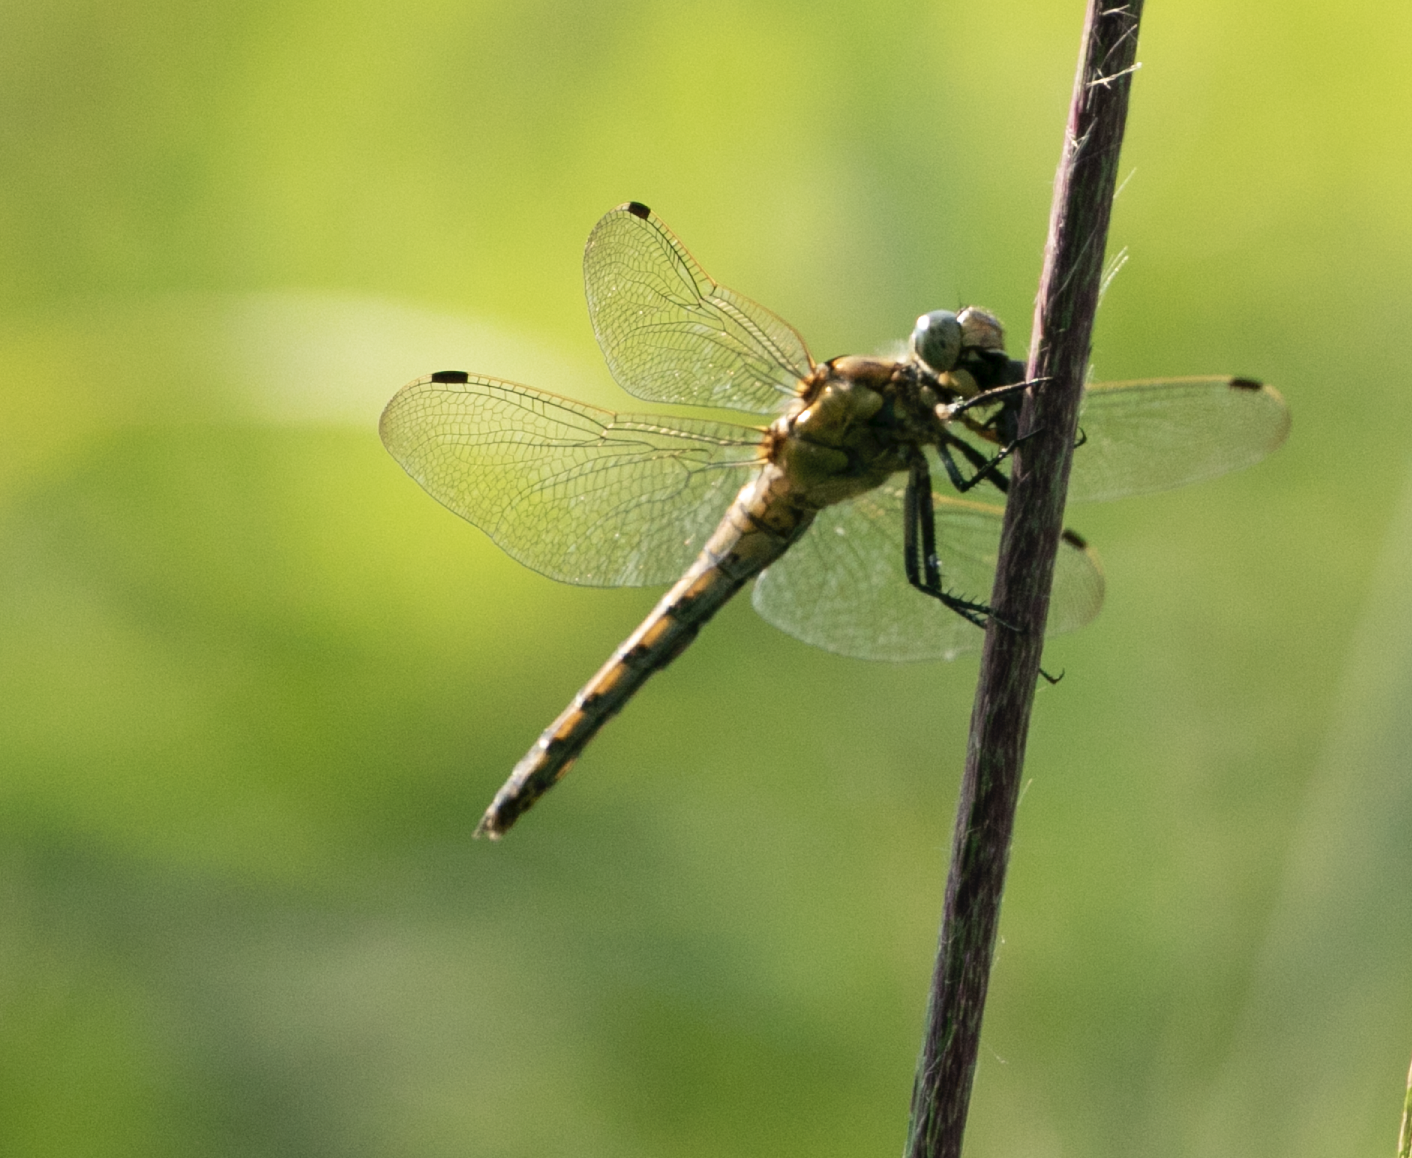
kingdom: Animalia
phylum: Arthropoda
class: Insecta
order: Odonata
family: Libellulidae
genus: Orthetrum
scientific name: Orthetrum cancellatum
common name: Black-tailed skimmer
